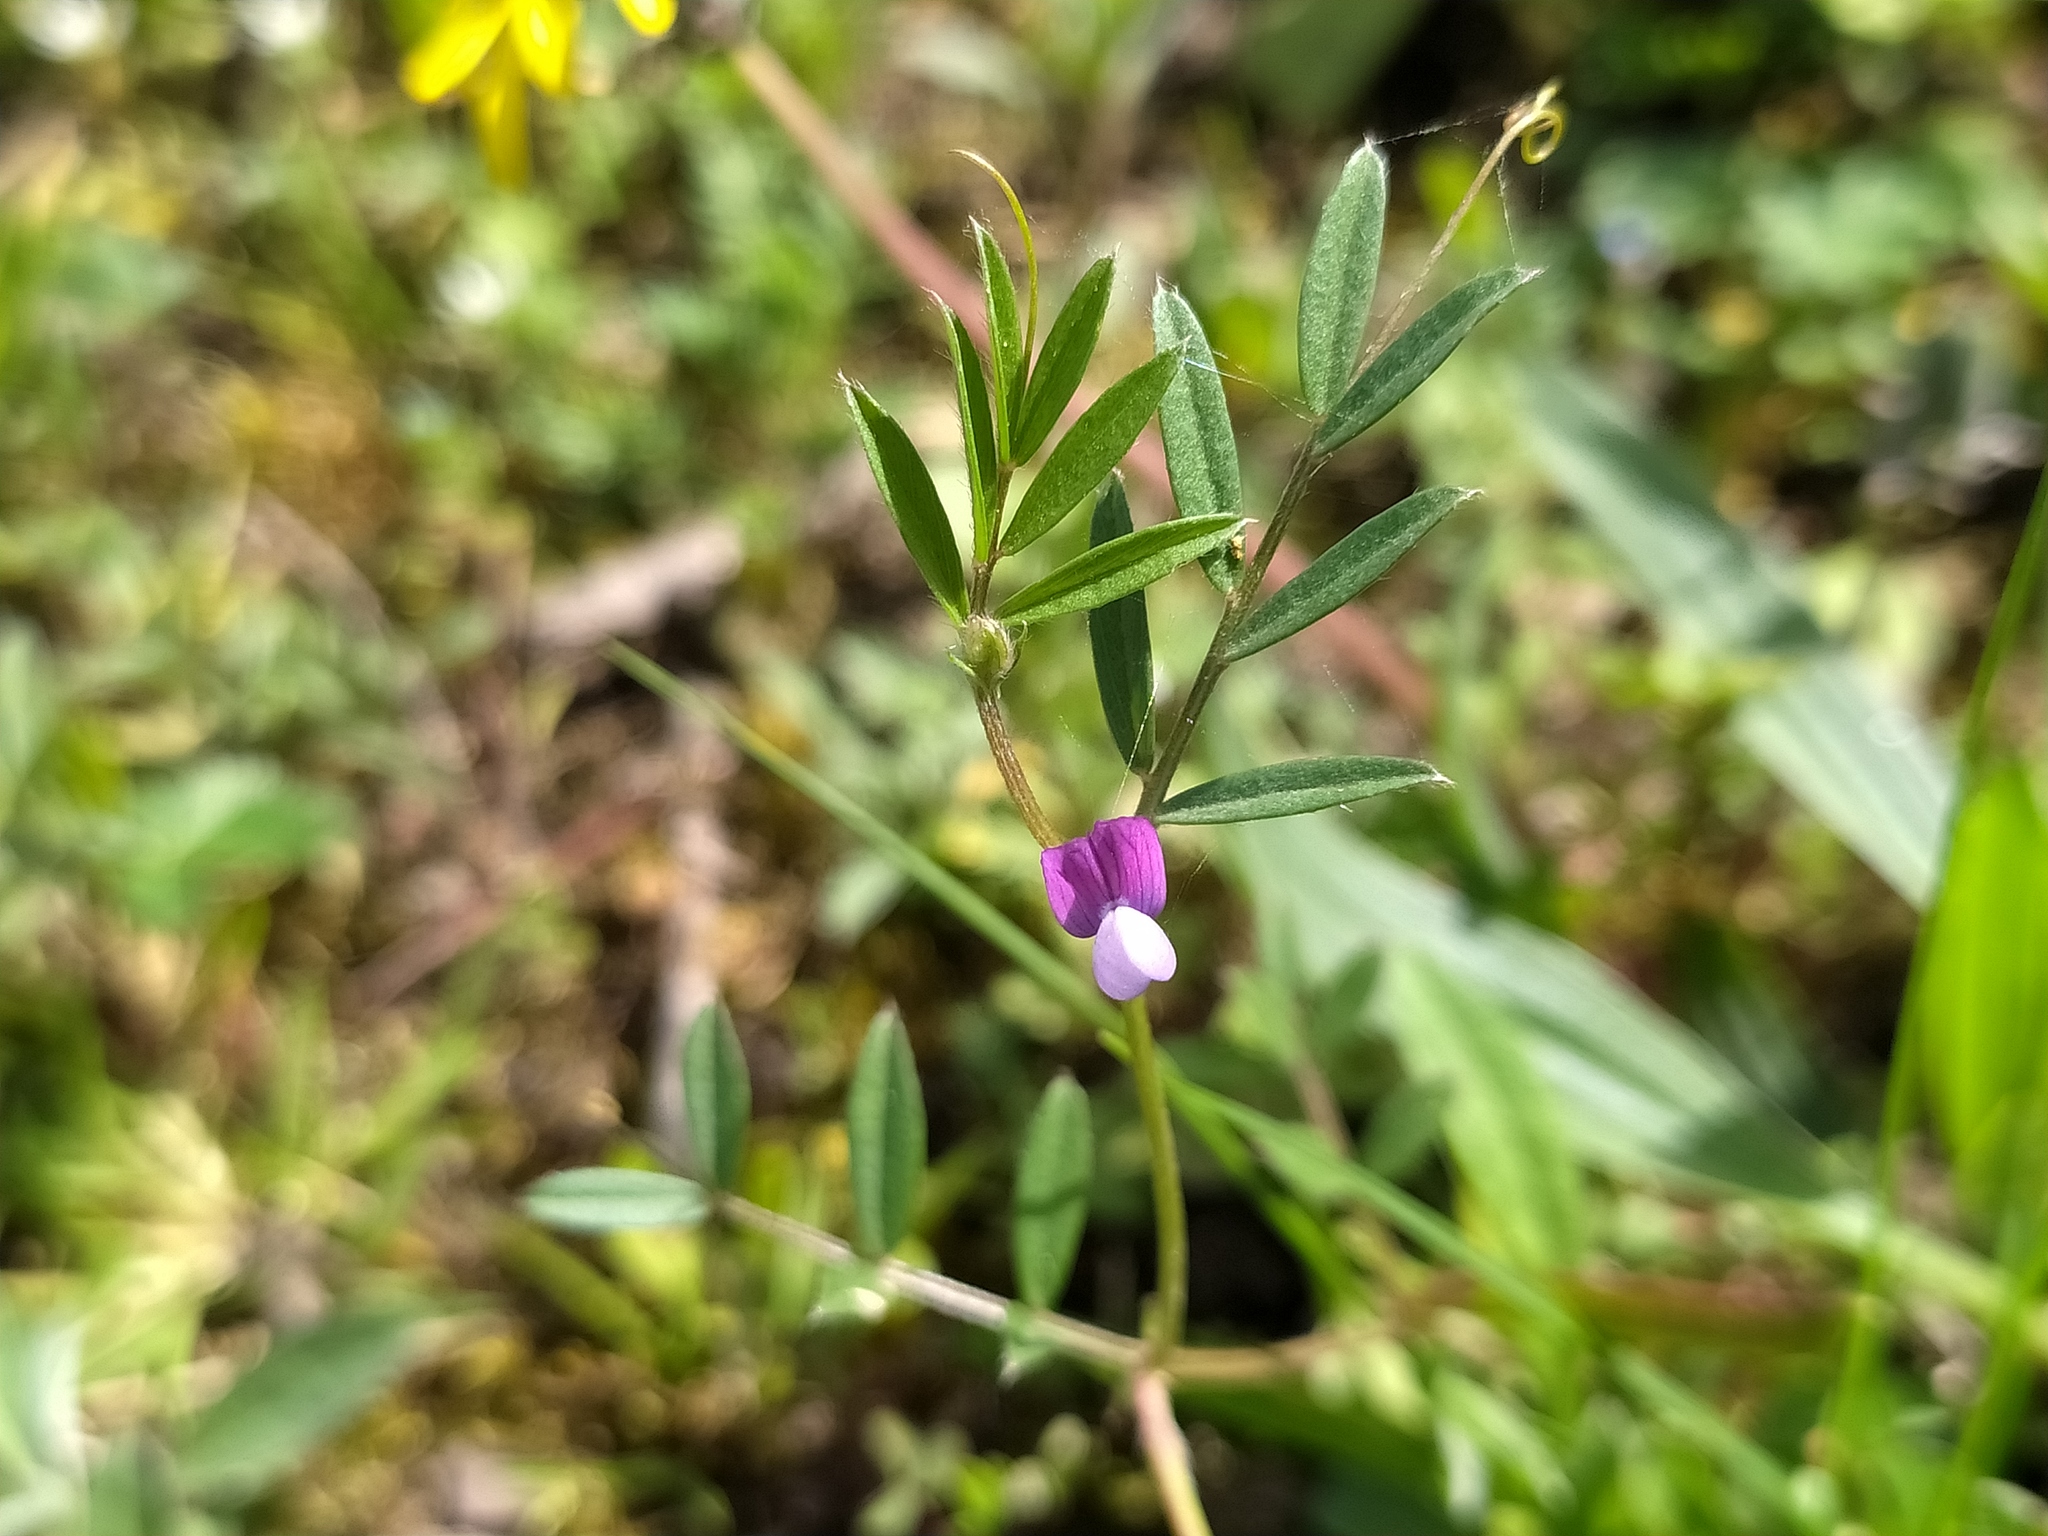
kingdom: Plantae
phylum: Tracheophyta
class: Magnoliopsida
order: Fabales
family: Fabaceae
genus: Vicia
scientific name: Vicia lathyroides
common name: Spring vetch
